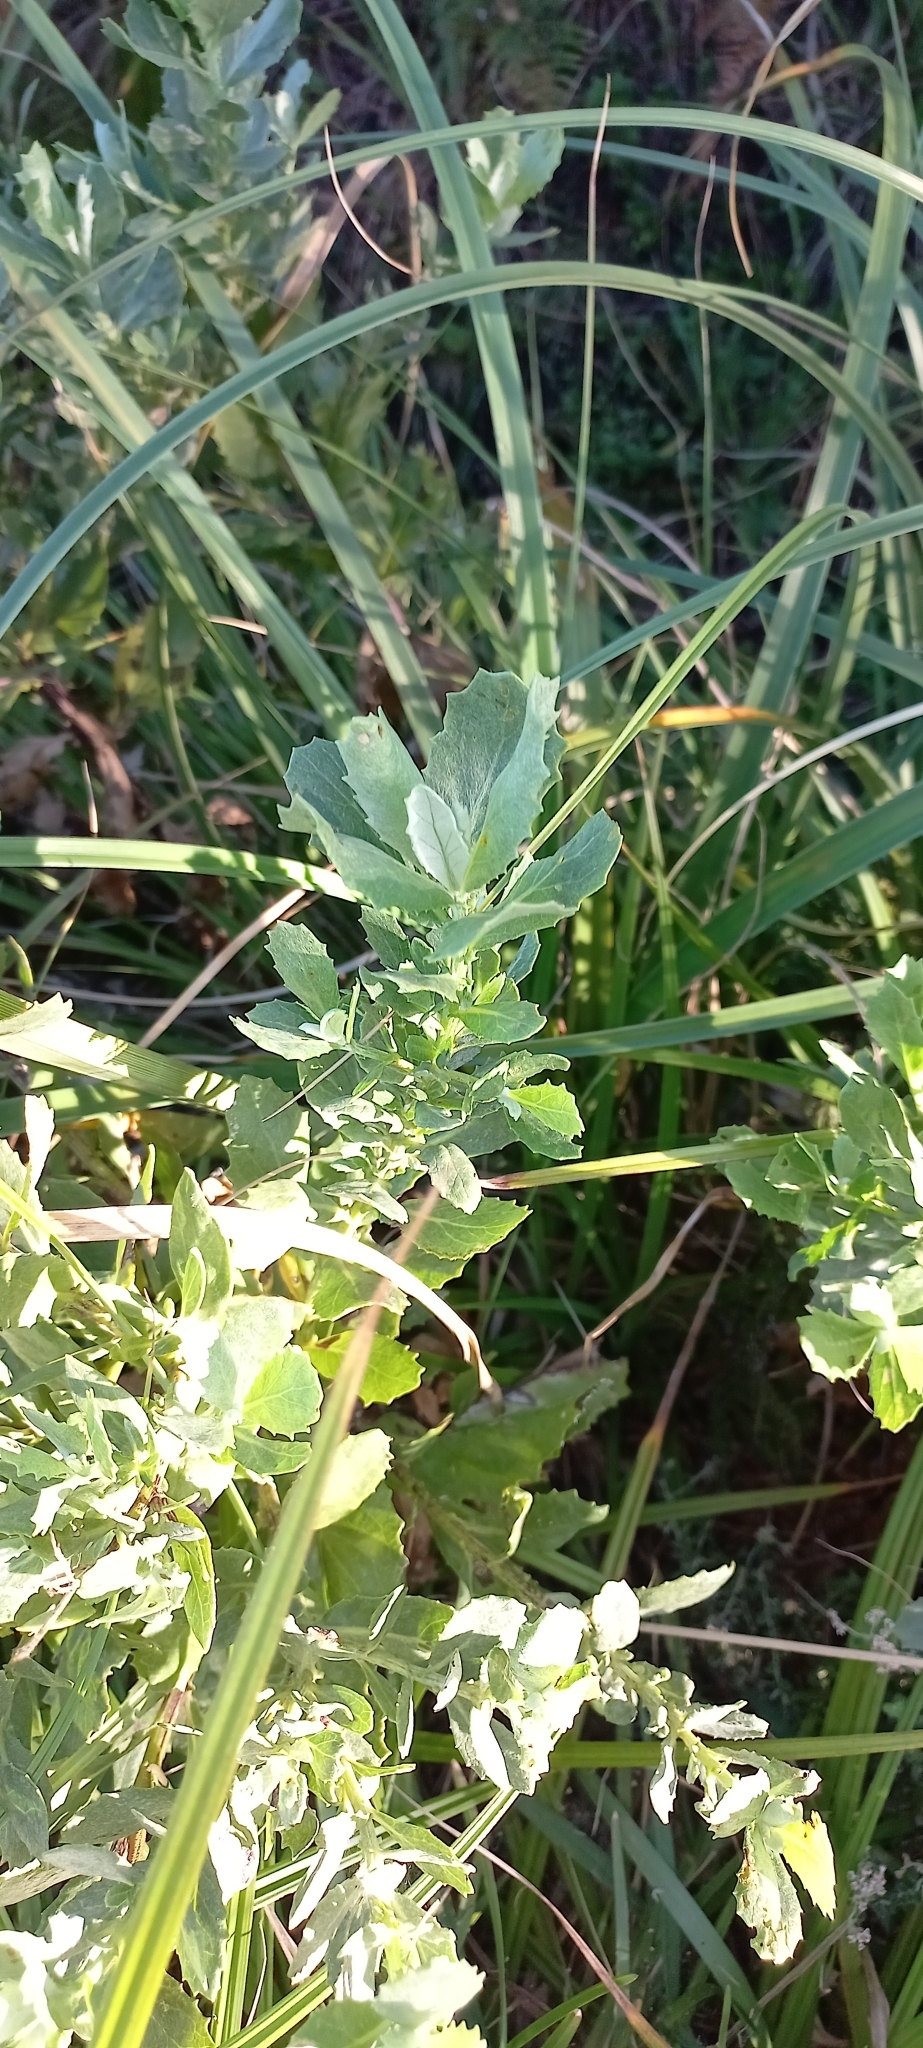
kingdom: Plantae
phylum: Tracheophyta
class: Magnoliopsida
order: Asterales
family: Asteraceae
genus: Senecio
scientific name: Senecio halimifolius
